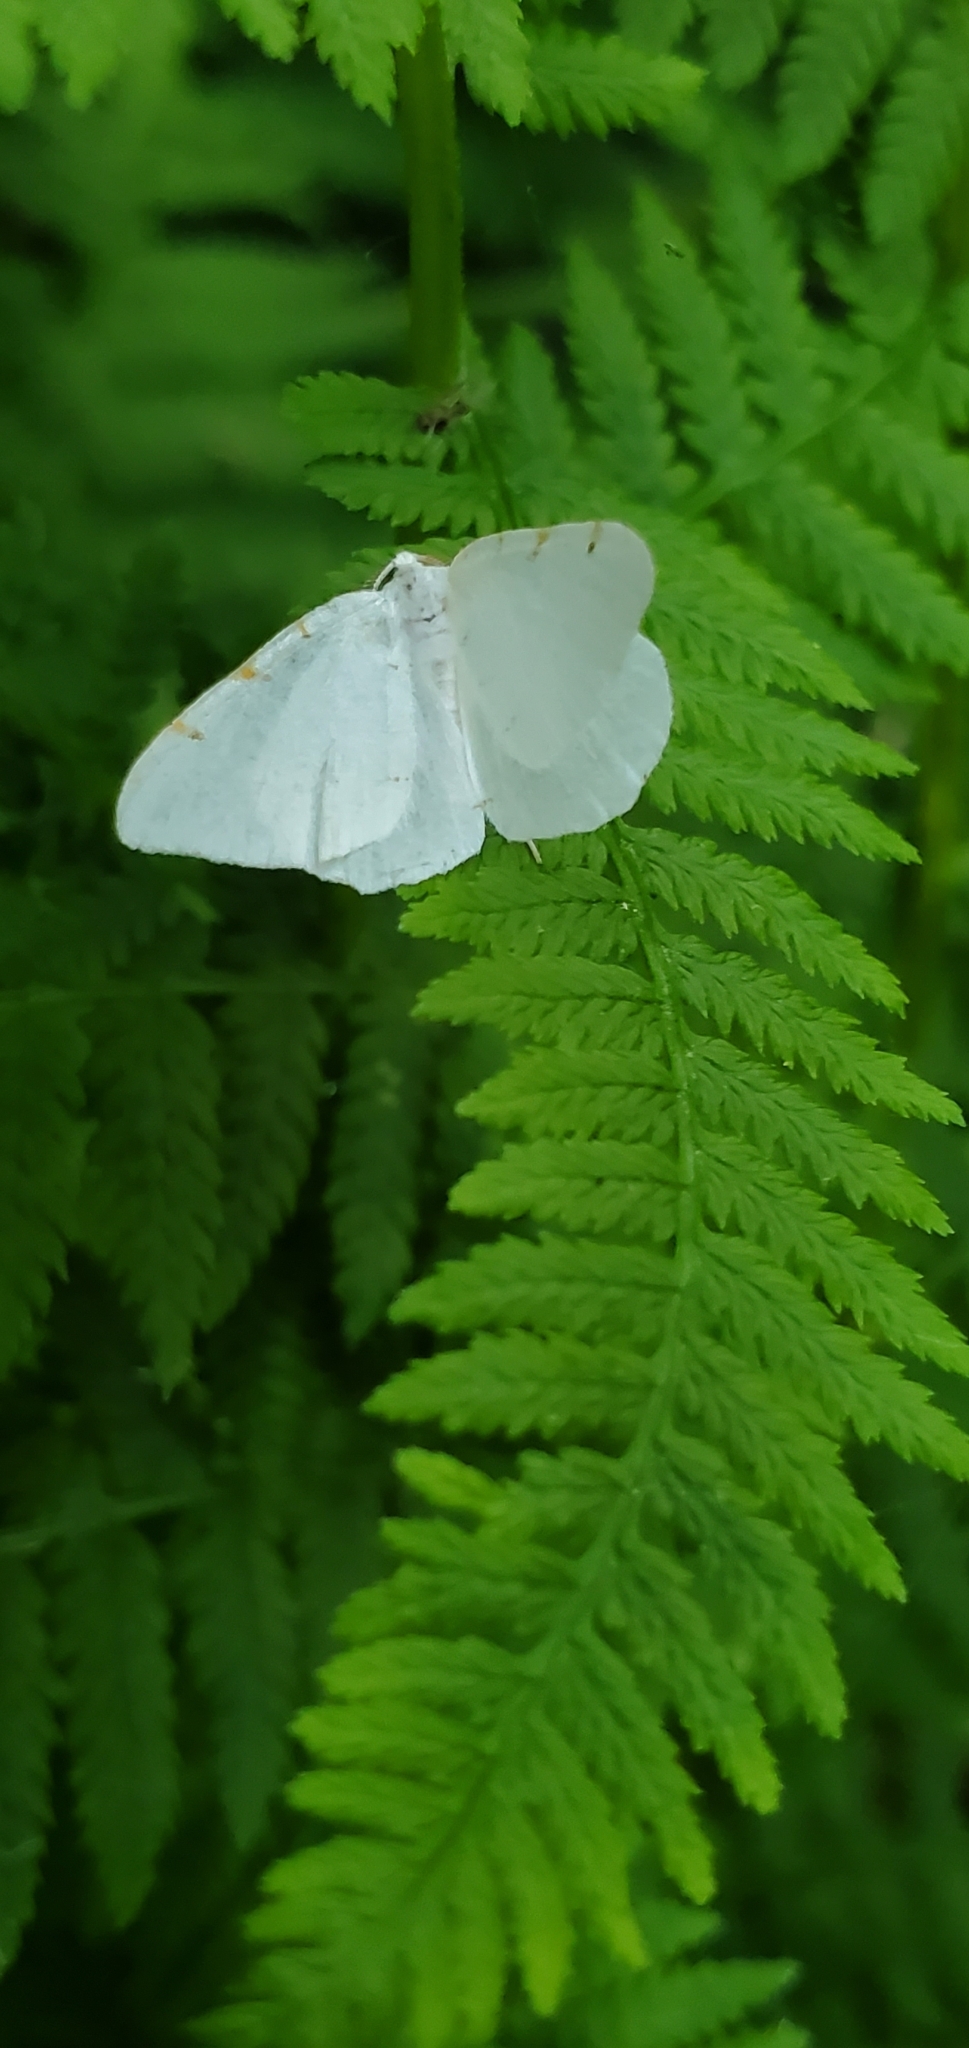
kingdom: Animalia
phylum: Arthropoda
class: Insecta
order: Lepidoptera
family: Geometridae
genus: Macaria
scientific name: Macaria pustularia
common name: Lesser maple spanworm moth
